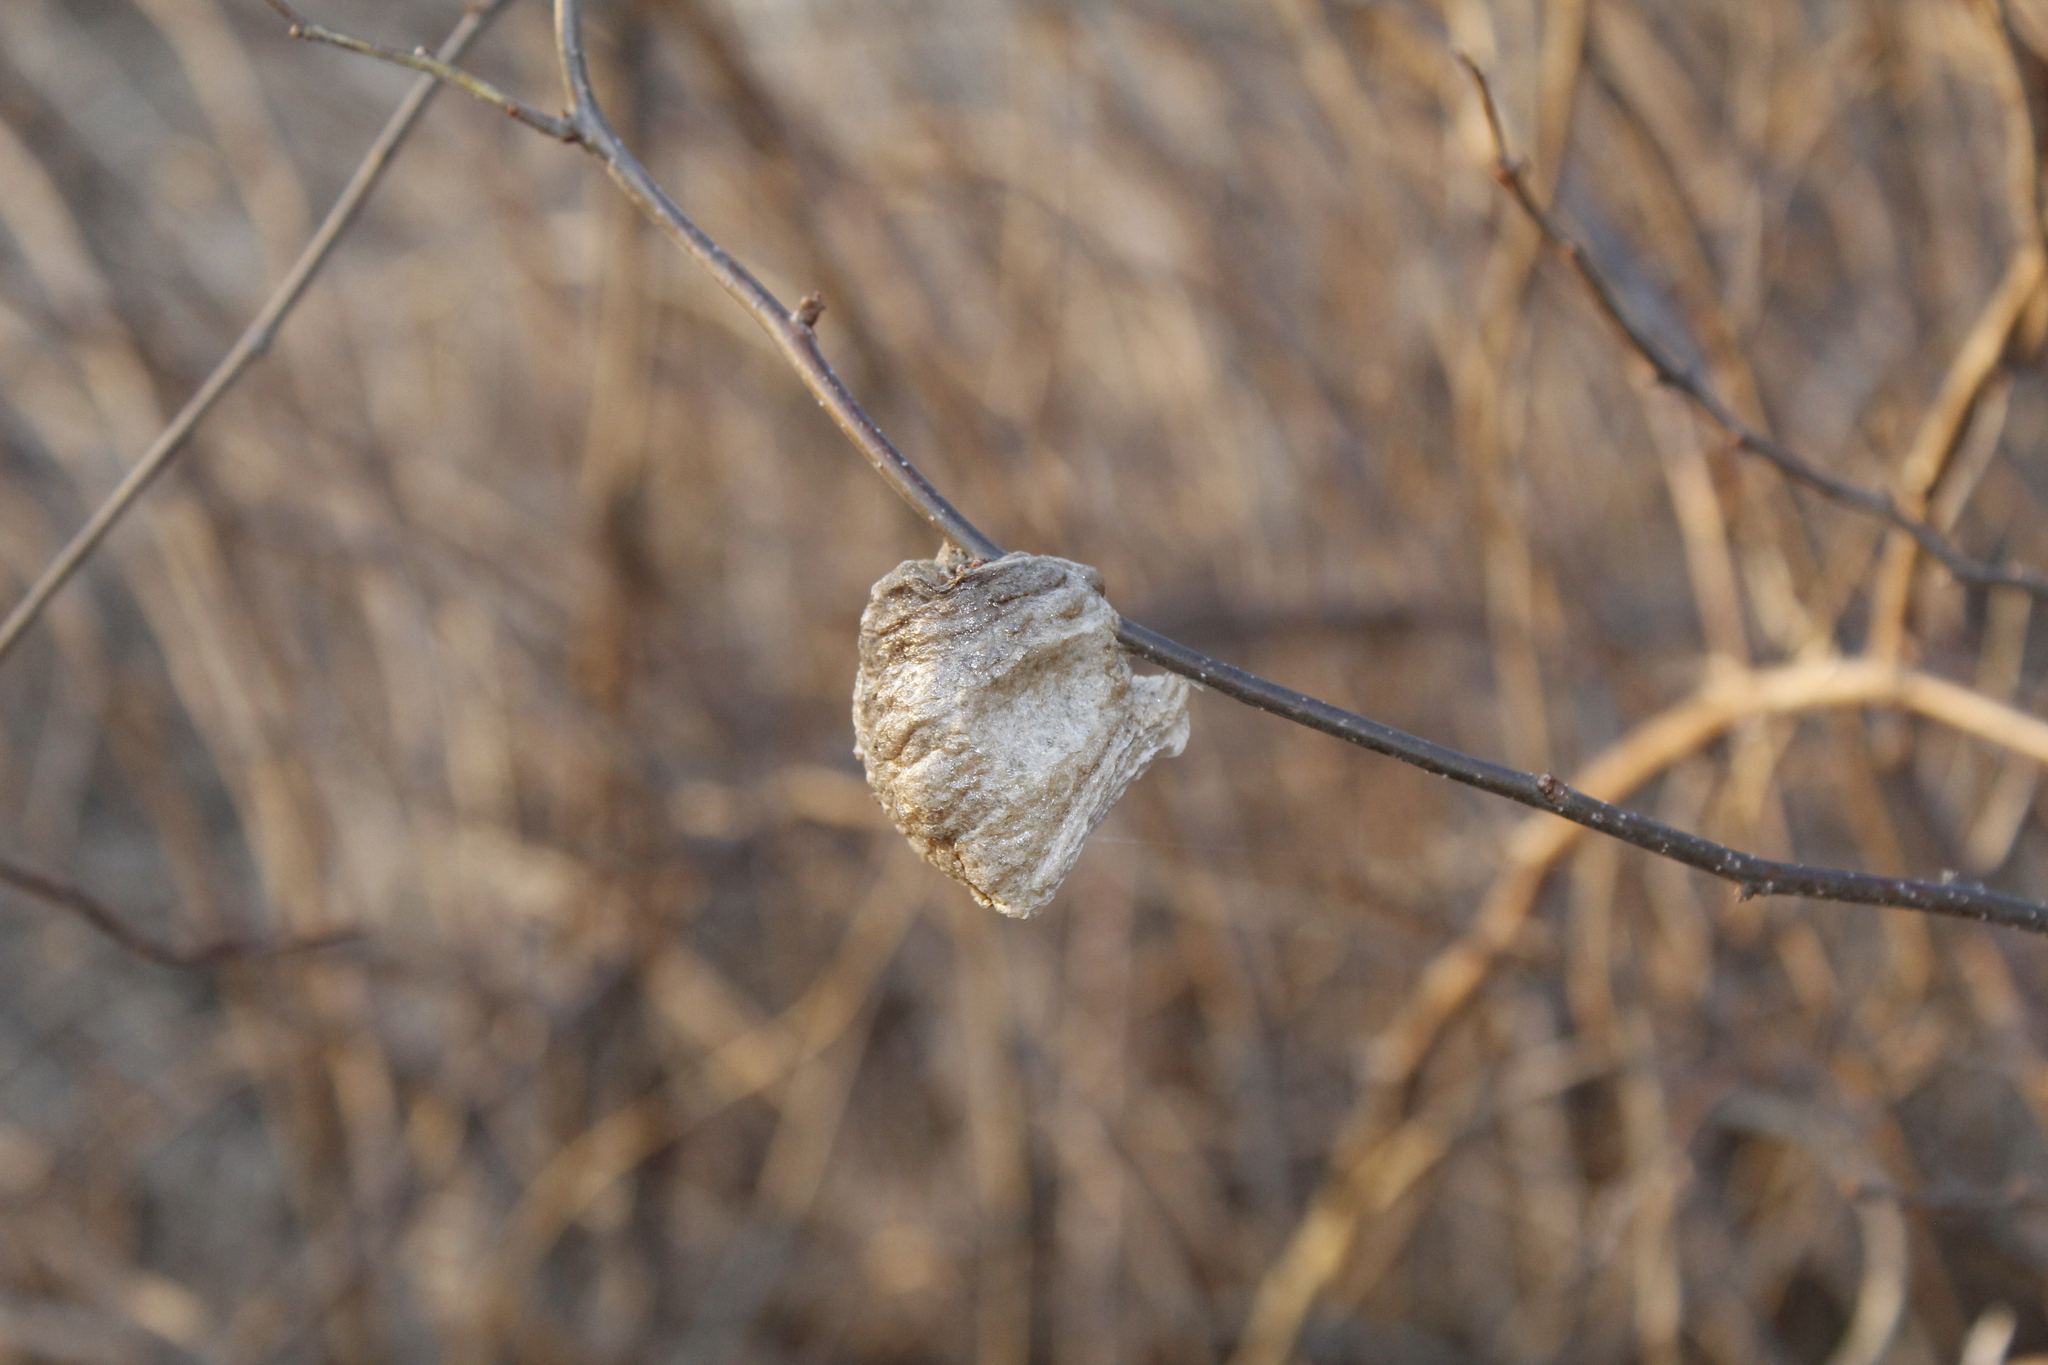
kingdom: Animalia
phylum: Arthropoda
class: Insecta
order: Mantodea
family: Mantidae
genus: Tenodera
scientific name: Tenodera sinensis
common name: Chinese mantis
